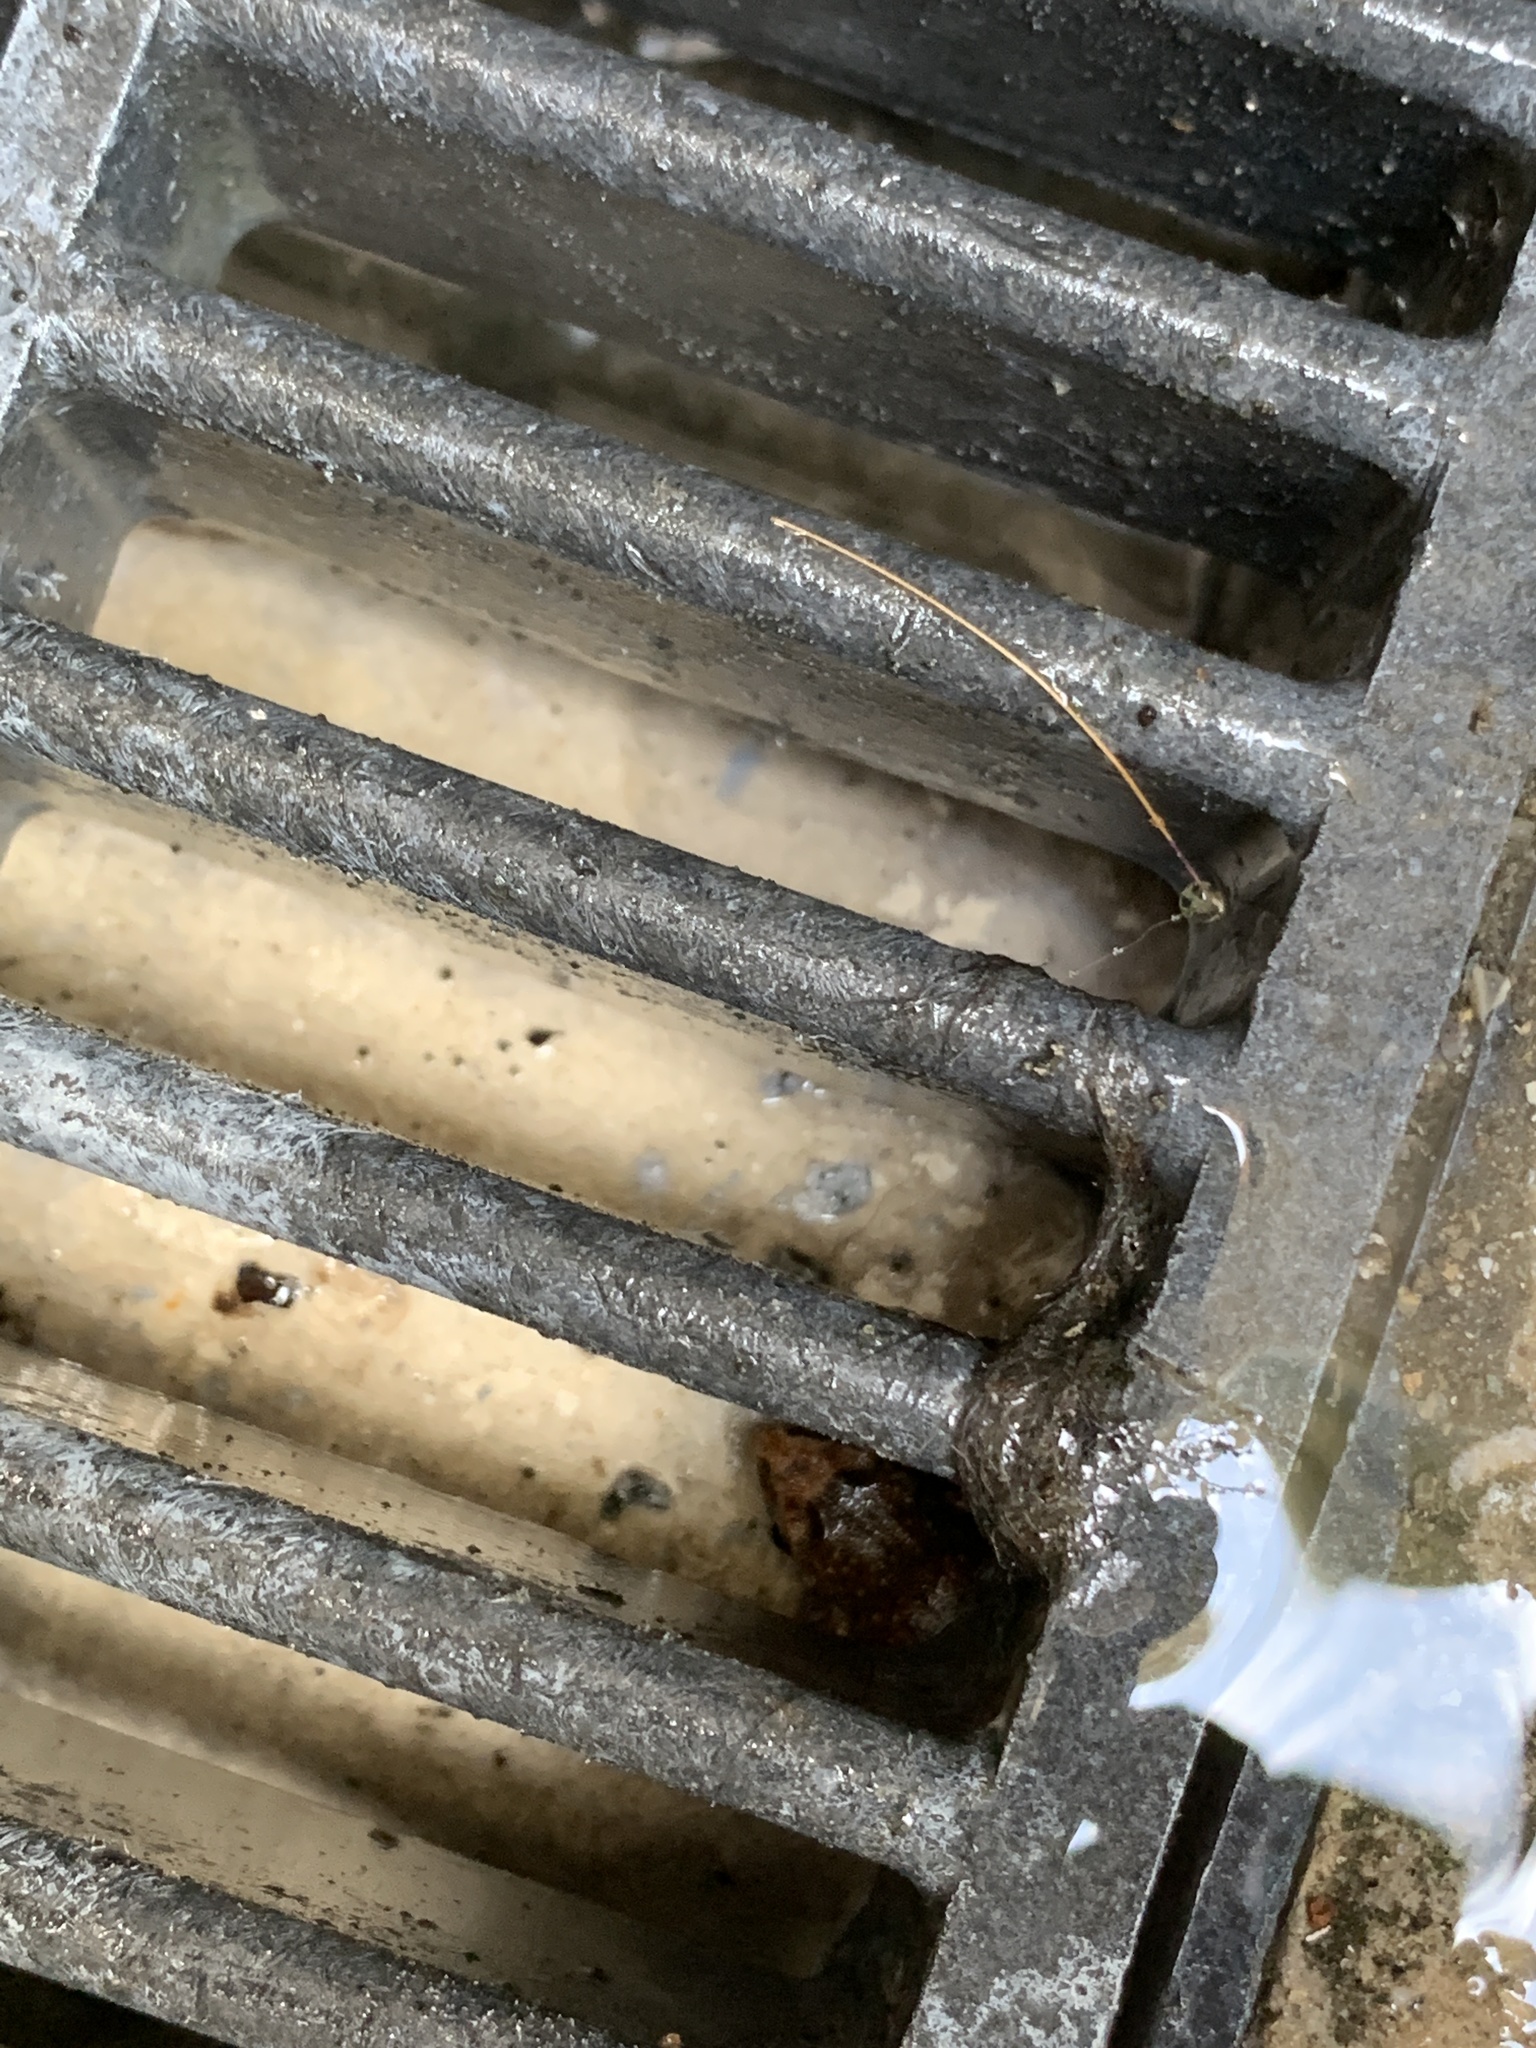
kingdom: Animalia
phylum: Chordata
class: Amphibia
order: Anura
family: Eleutherodactylidae
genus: Eleutherodactylus
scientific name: Eleutherodactylus planirostris
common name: Greenhouse frog
